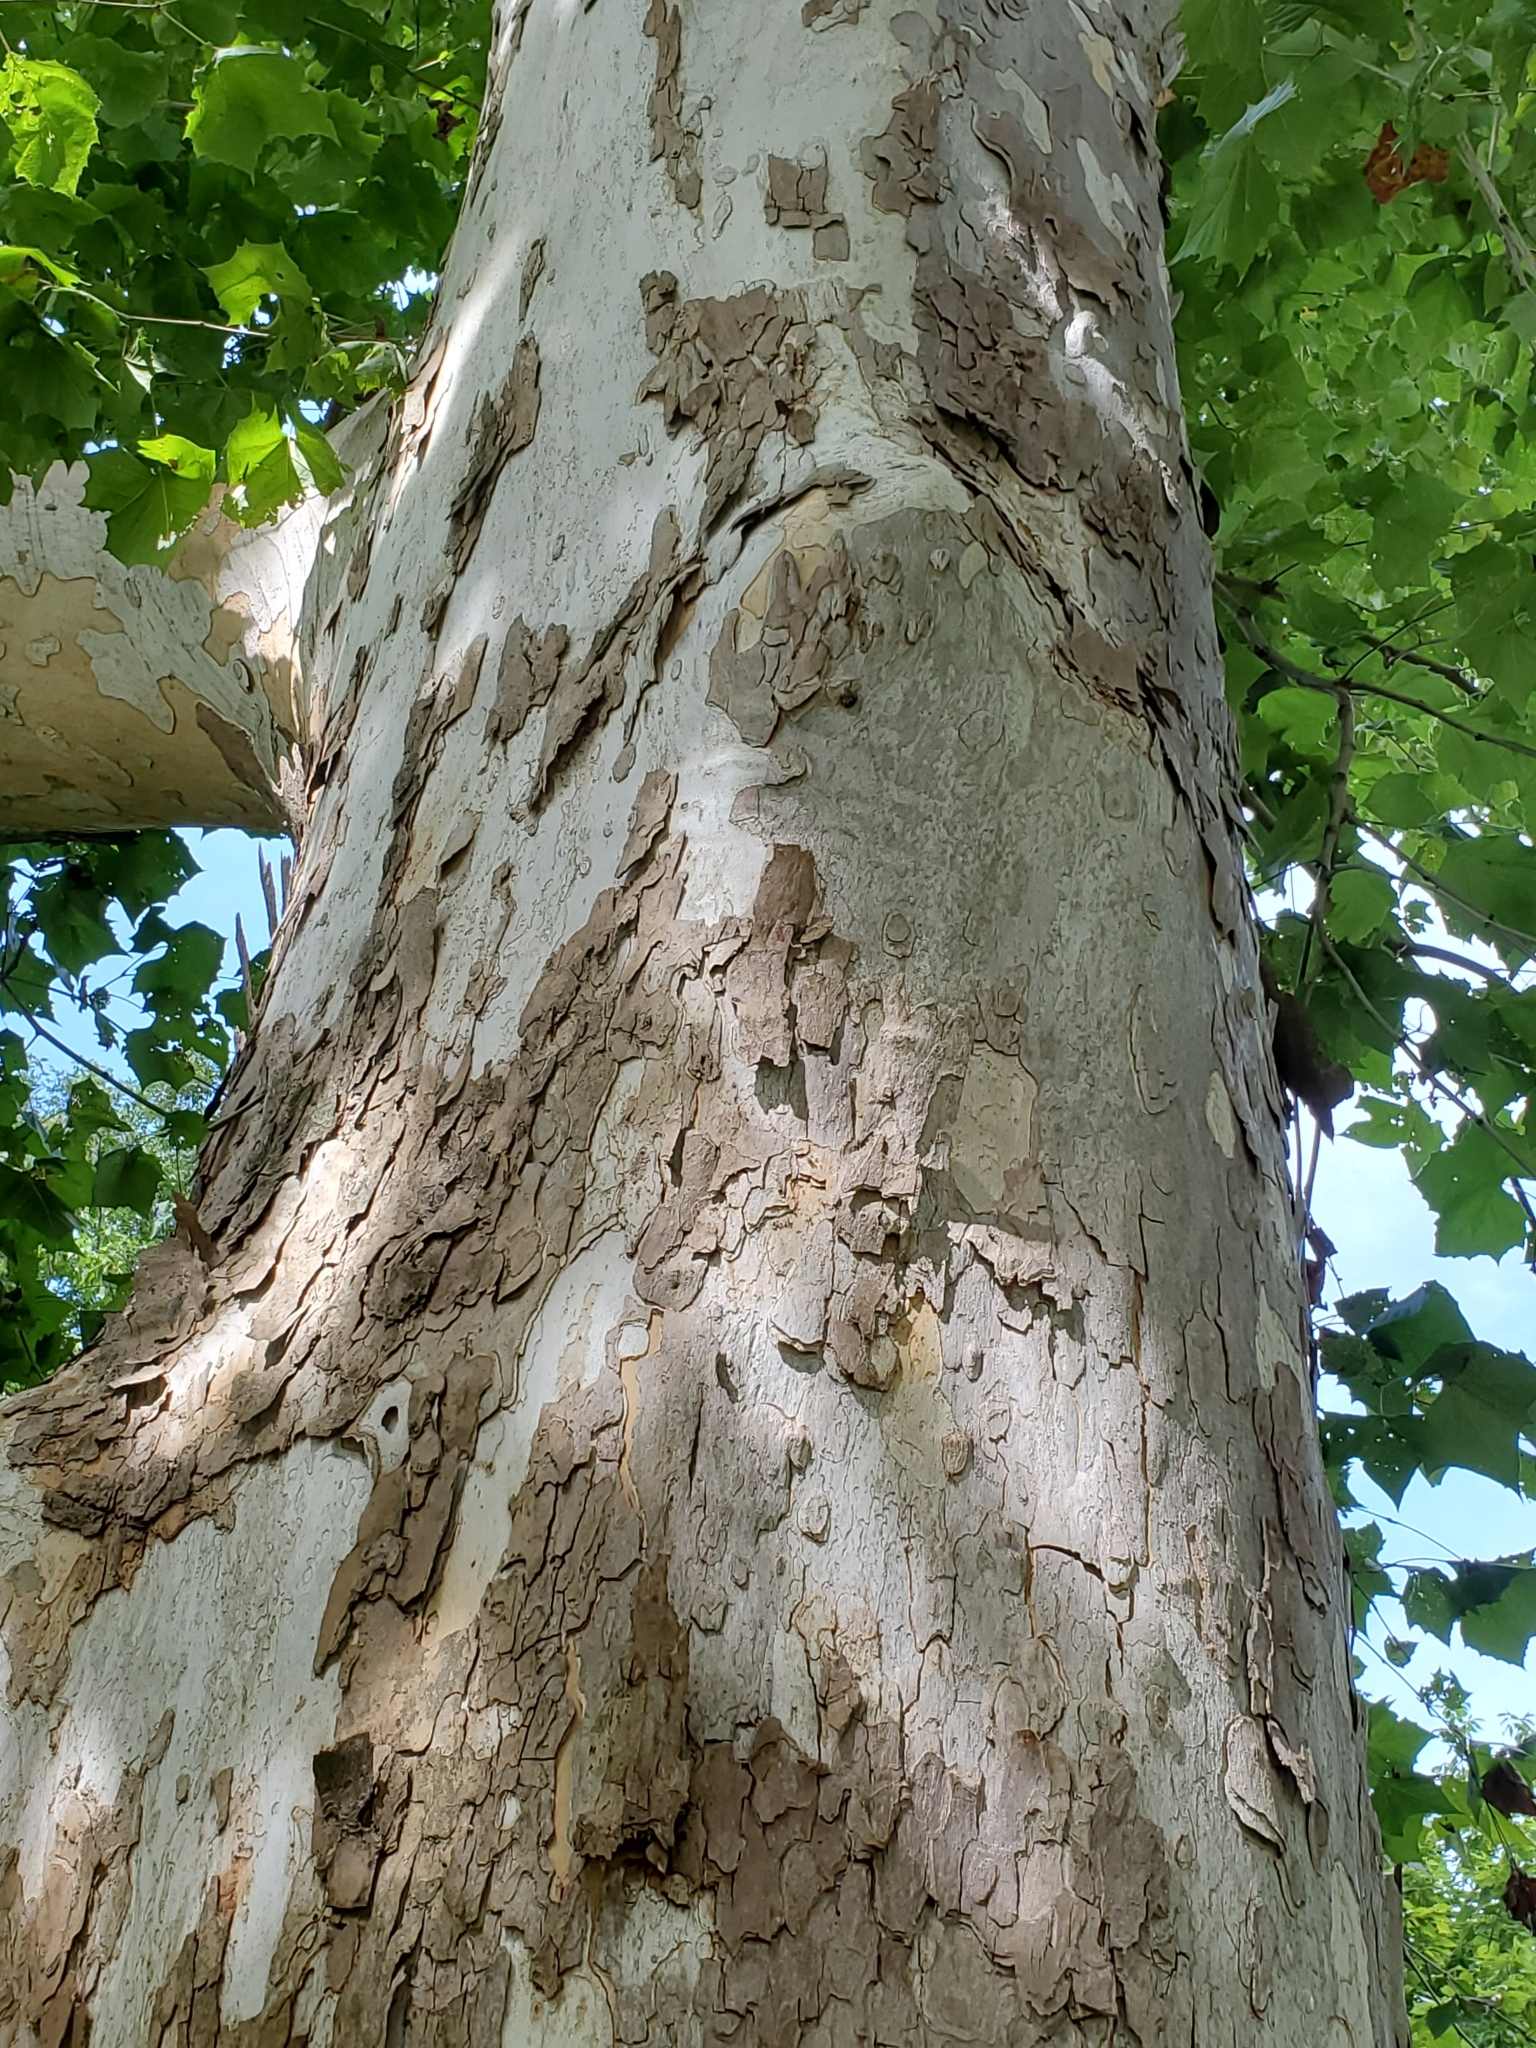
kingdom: Plantae
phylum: Tracheophyta
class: Magnoliopsida
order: Proteales
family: Platanaceae
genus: Platanus
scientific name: Platanus occidentalis
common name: American sycamore
